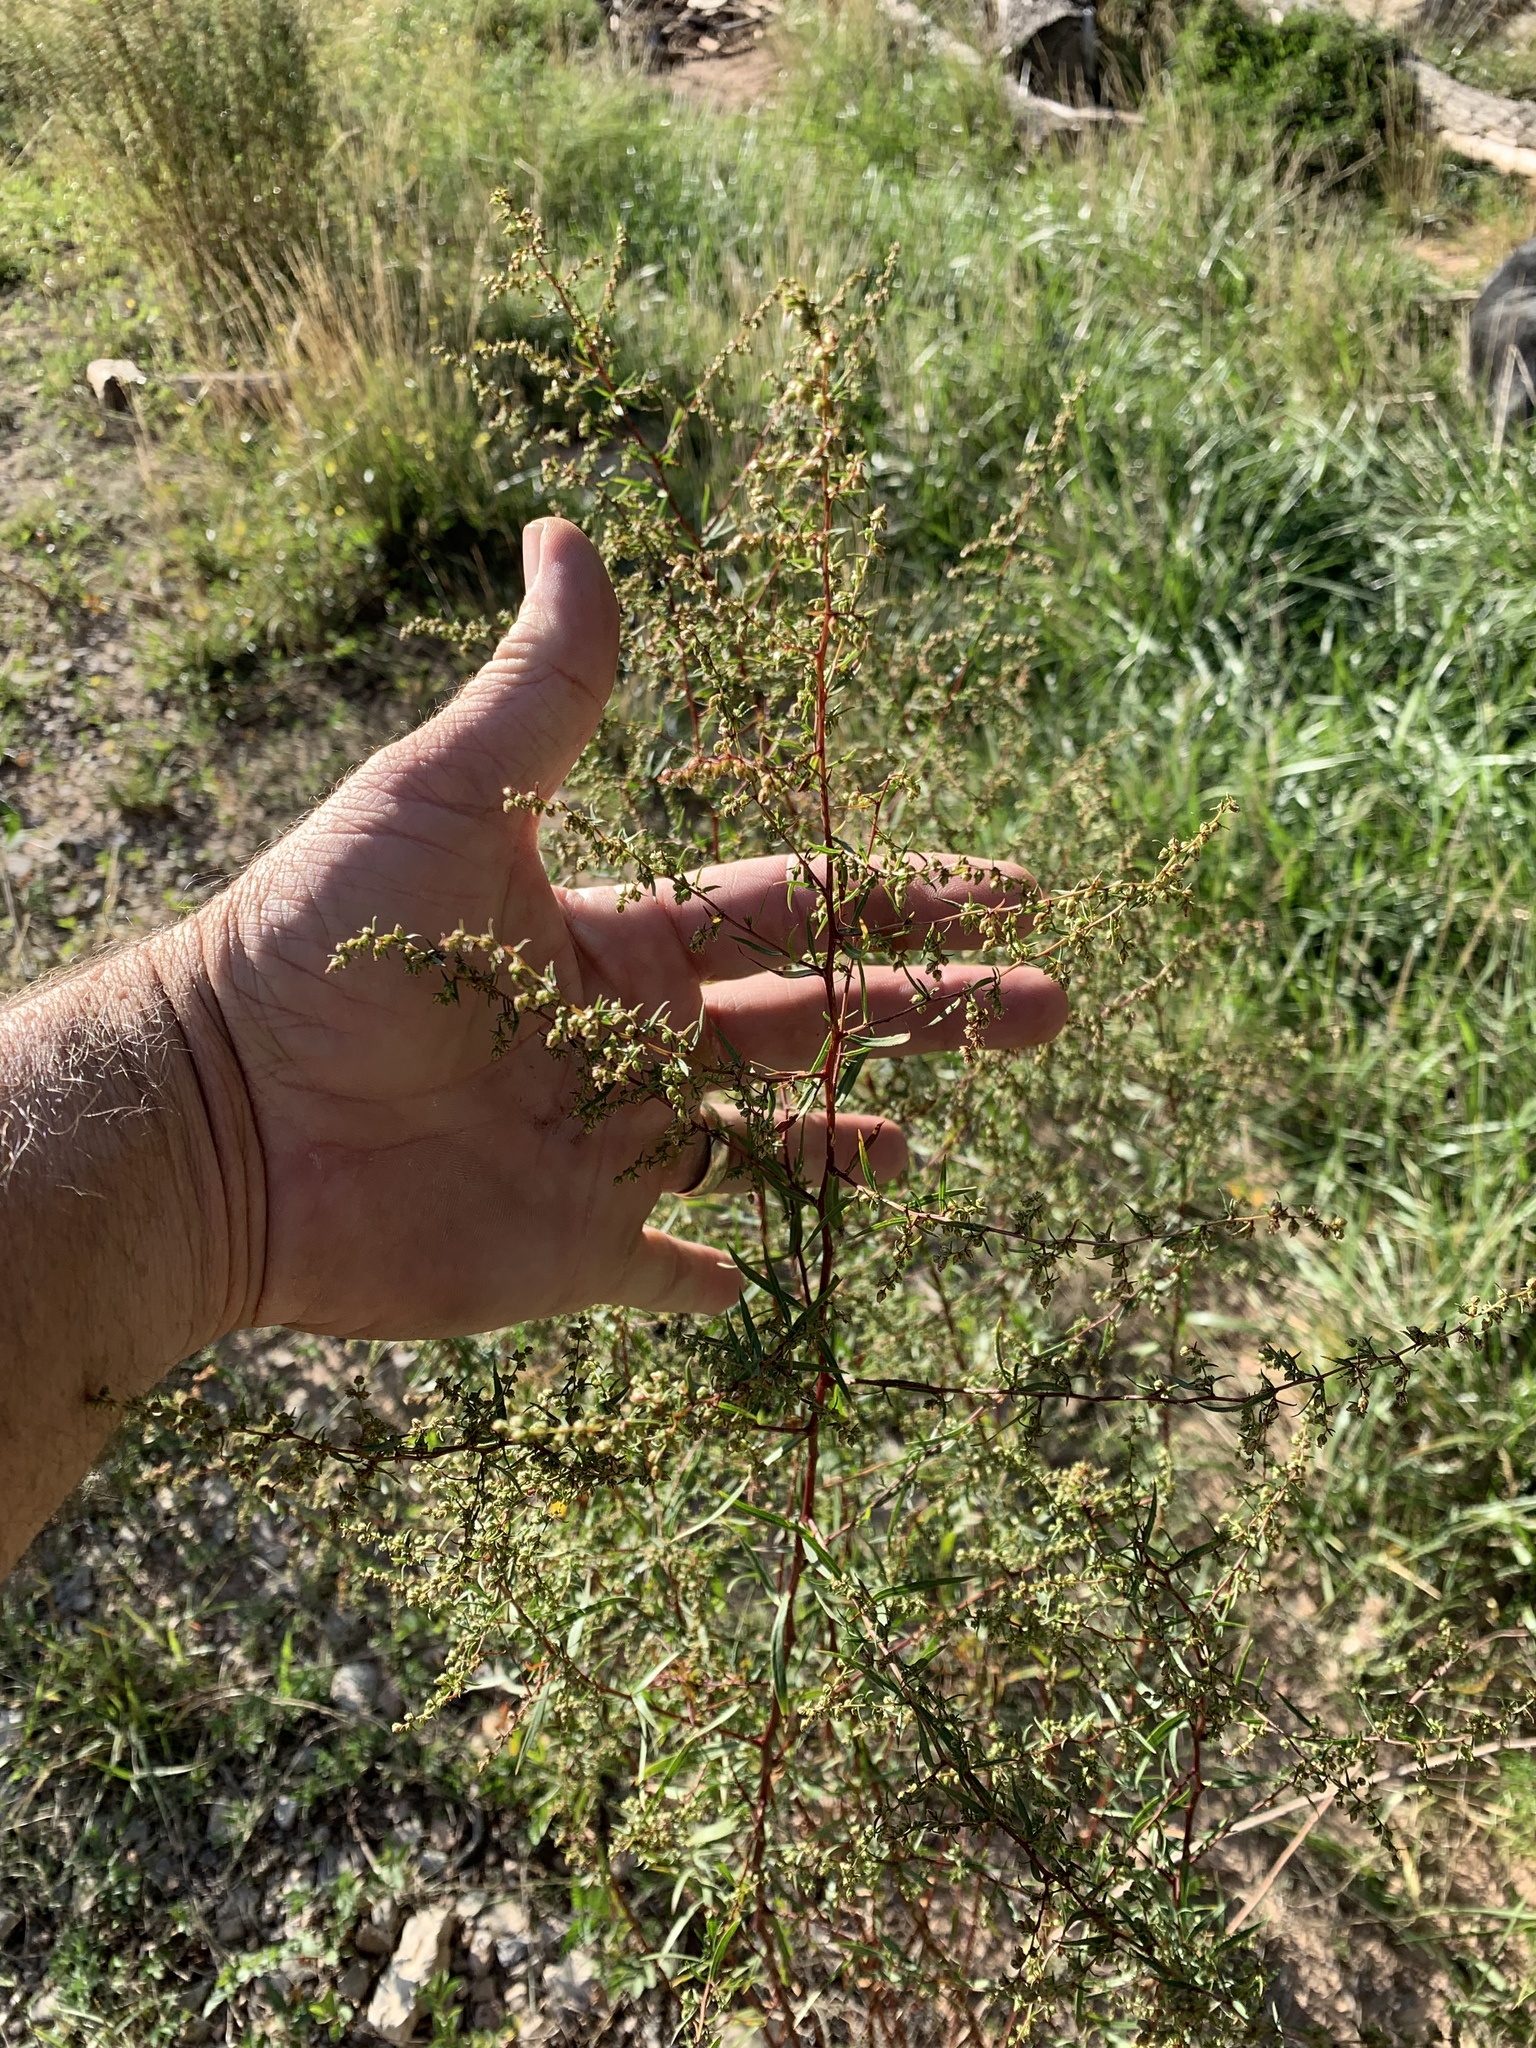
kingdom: Plantae
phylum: Tracheophyta
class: Magnoliopsida
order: Asterales
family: Asteraceae
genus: Artemisia
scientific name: Artemisia dracunculus
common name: Tarragon
